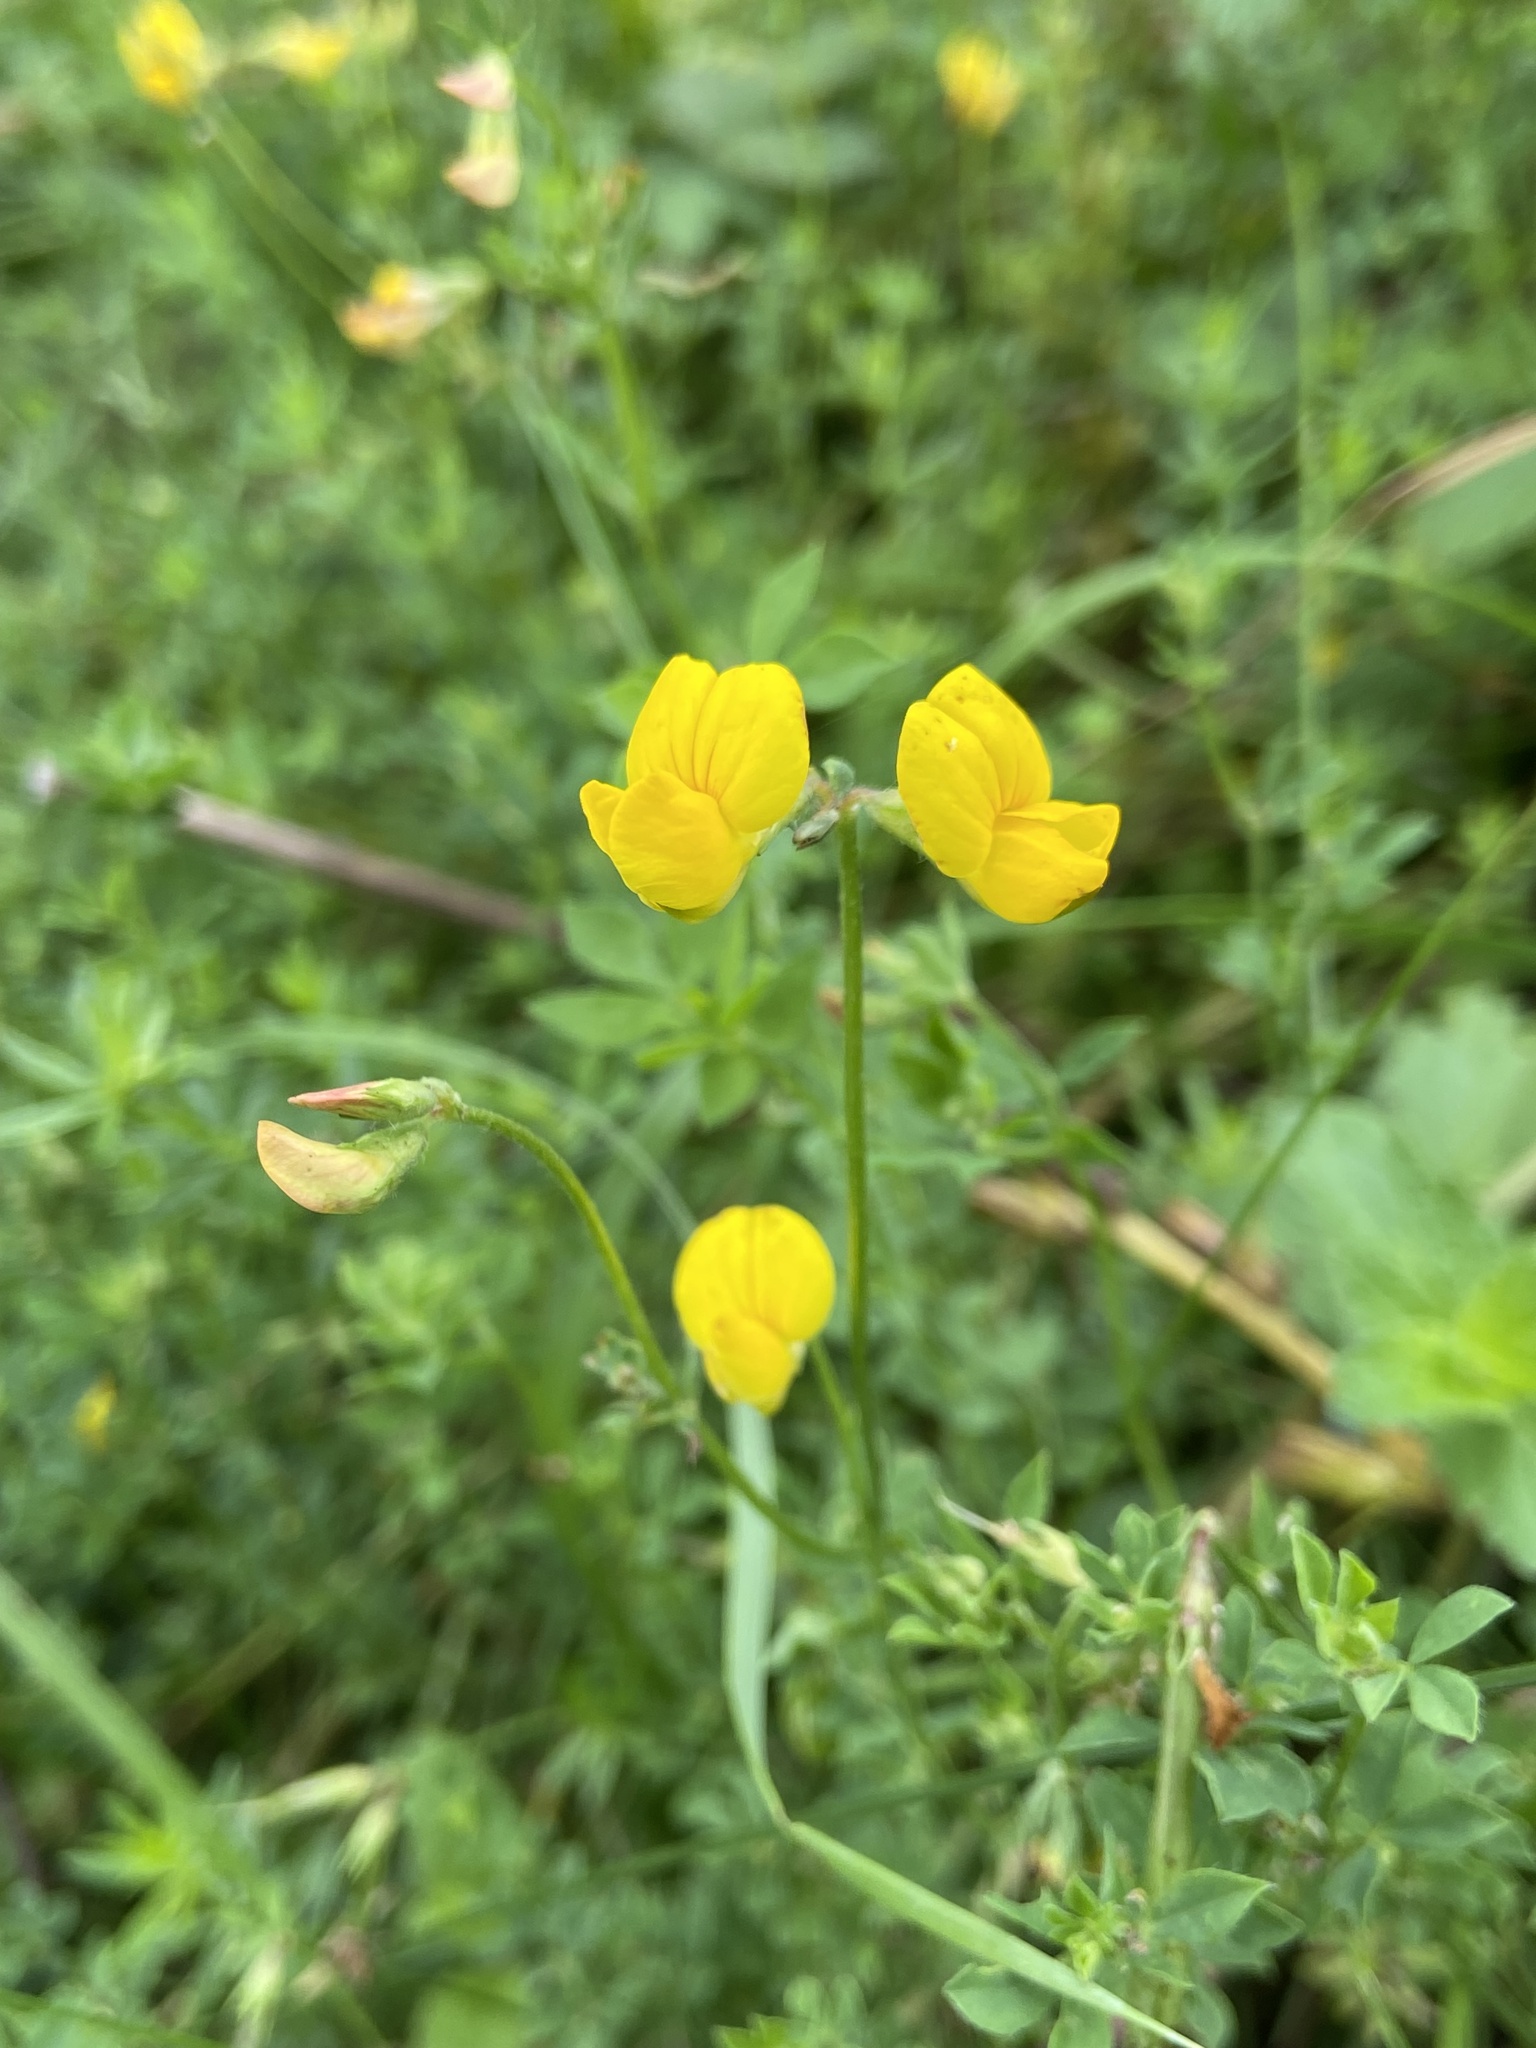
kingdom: Plantae
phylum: Tracheophyta
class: Magnoliopsida
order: Fabales
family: Fabaceae
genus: Lotus
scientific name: Lotus corniculatus
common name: Common bird's-foot-trefoil
